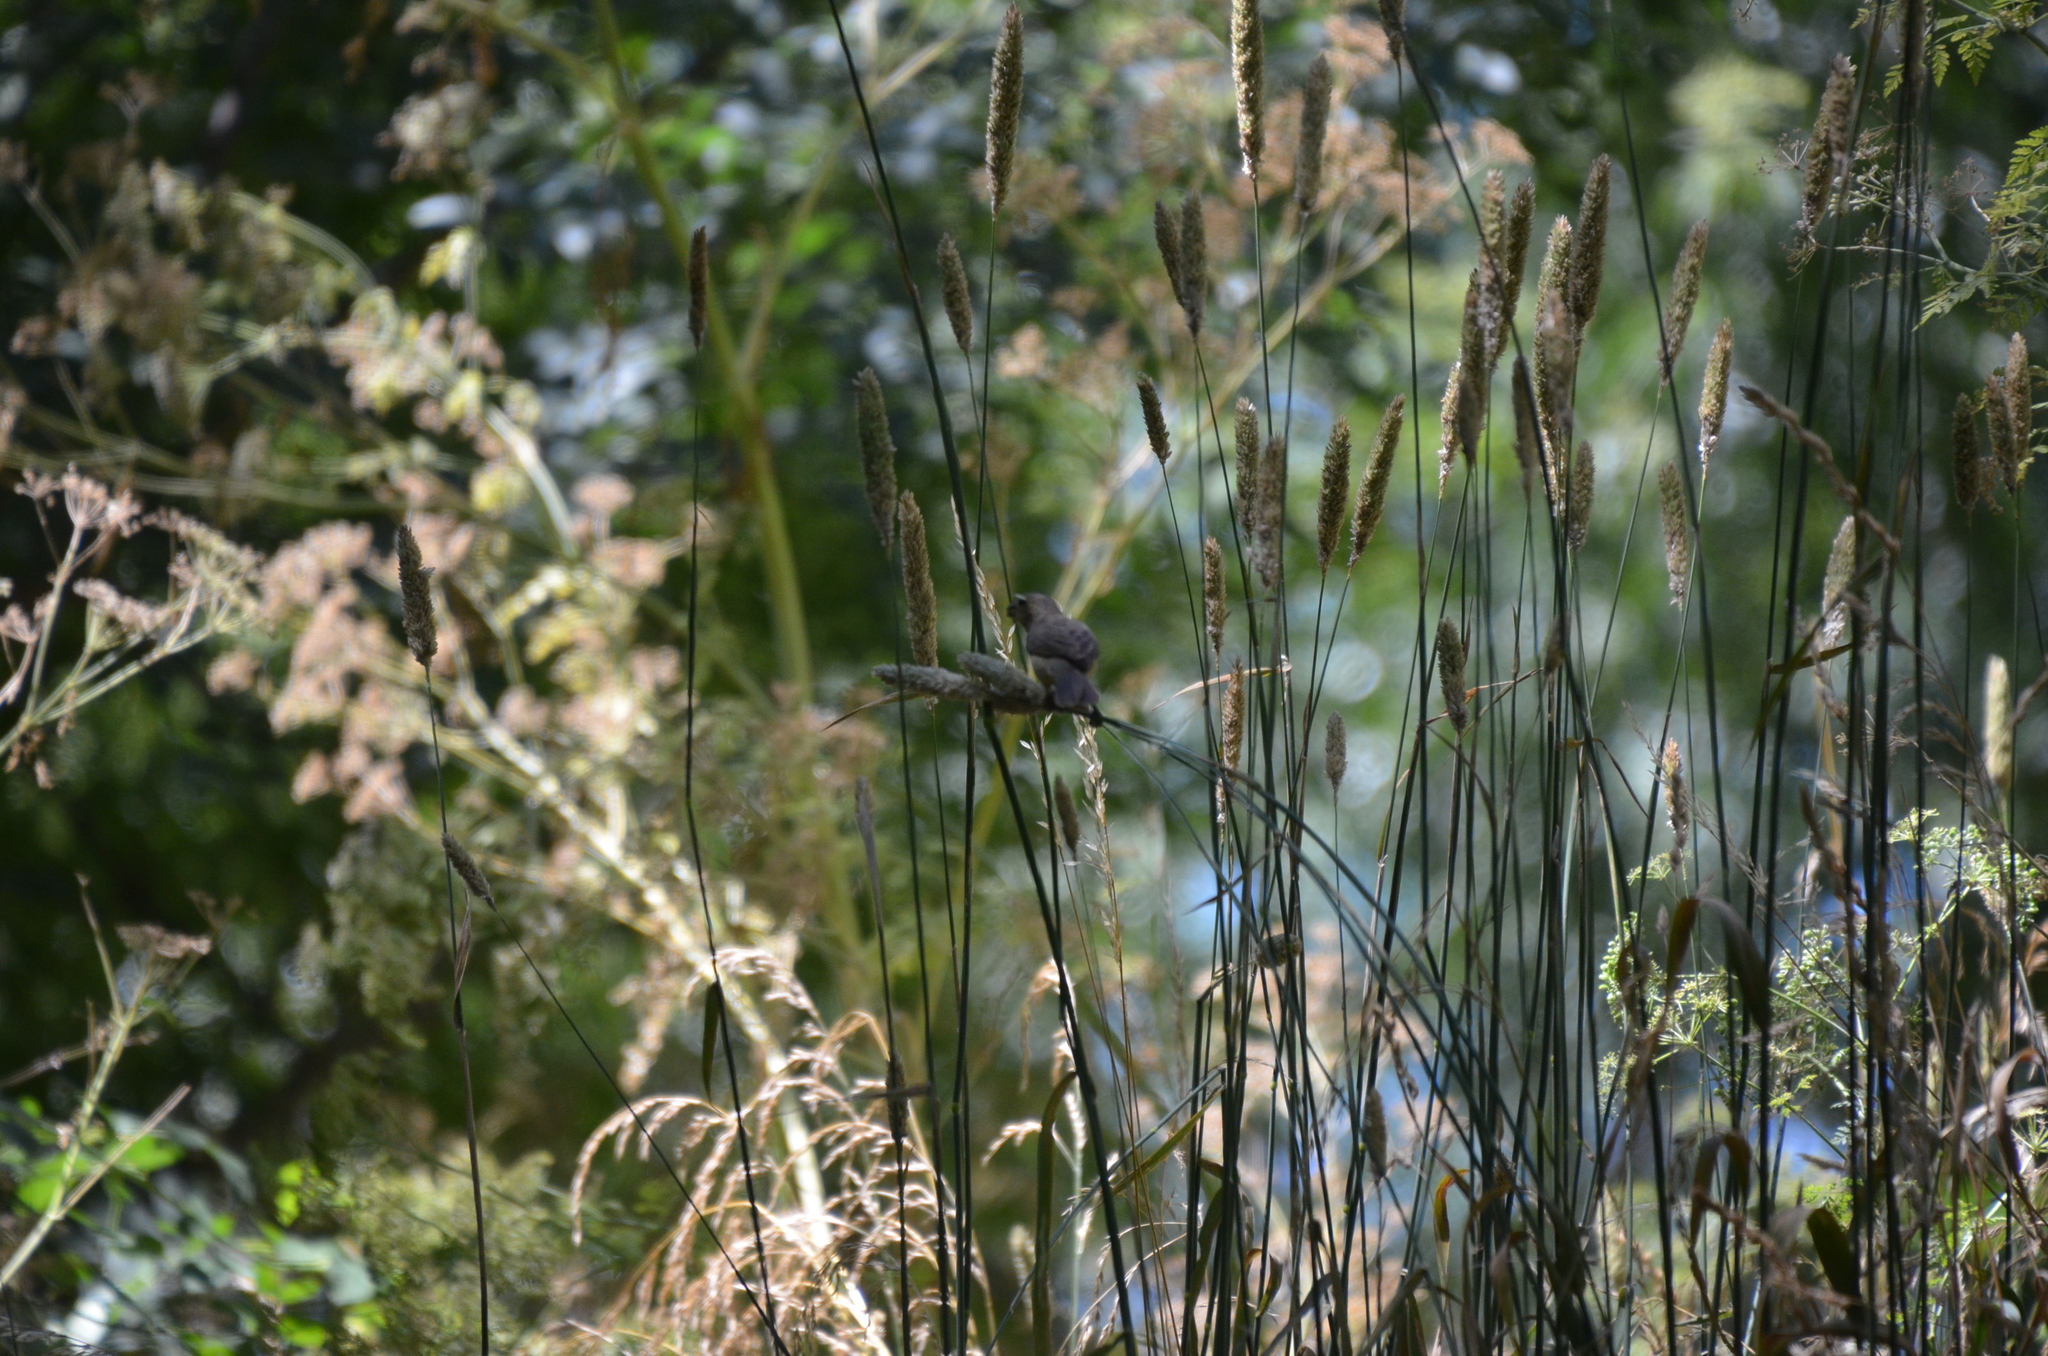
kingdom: Animalia
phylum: Chordata
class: Aves
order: Passeriformes
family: Thraupidae
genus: Sporophila
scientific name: Sporophila caerulescens
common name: Double-collared seedeater
